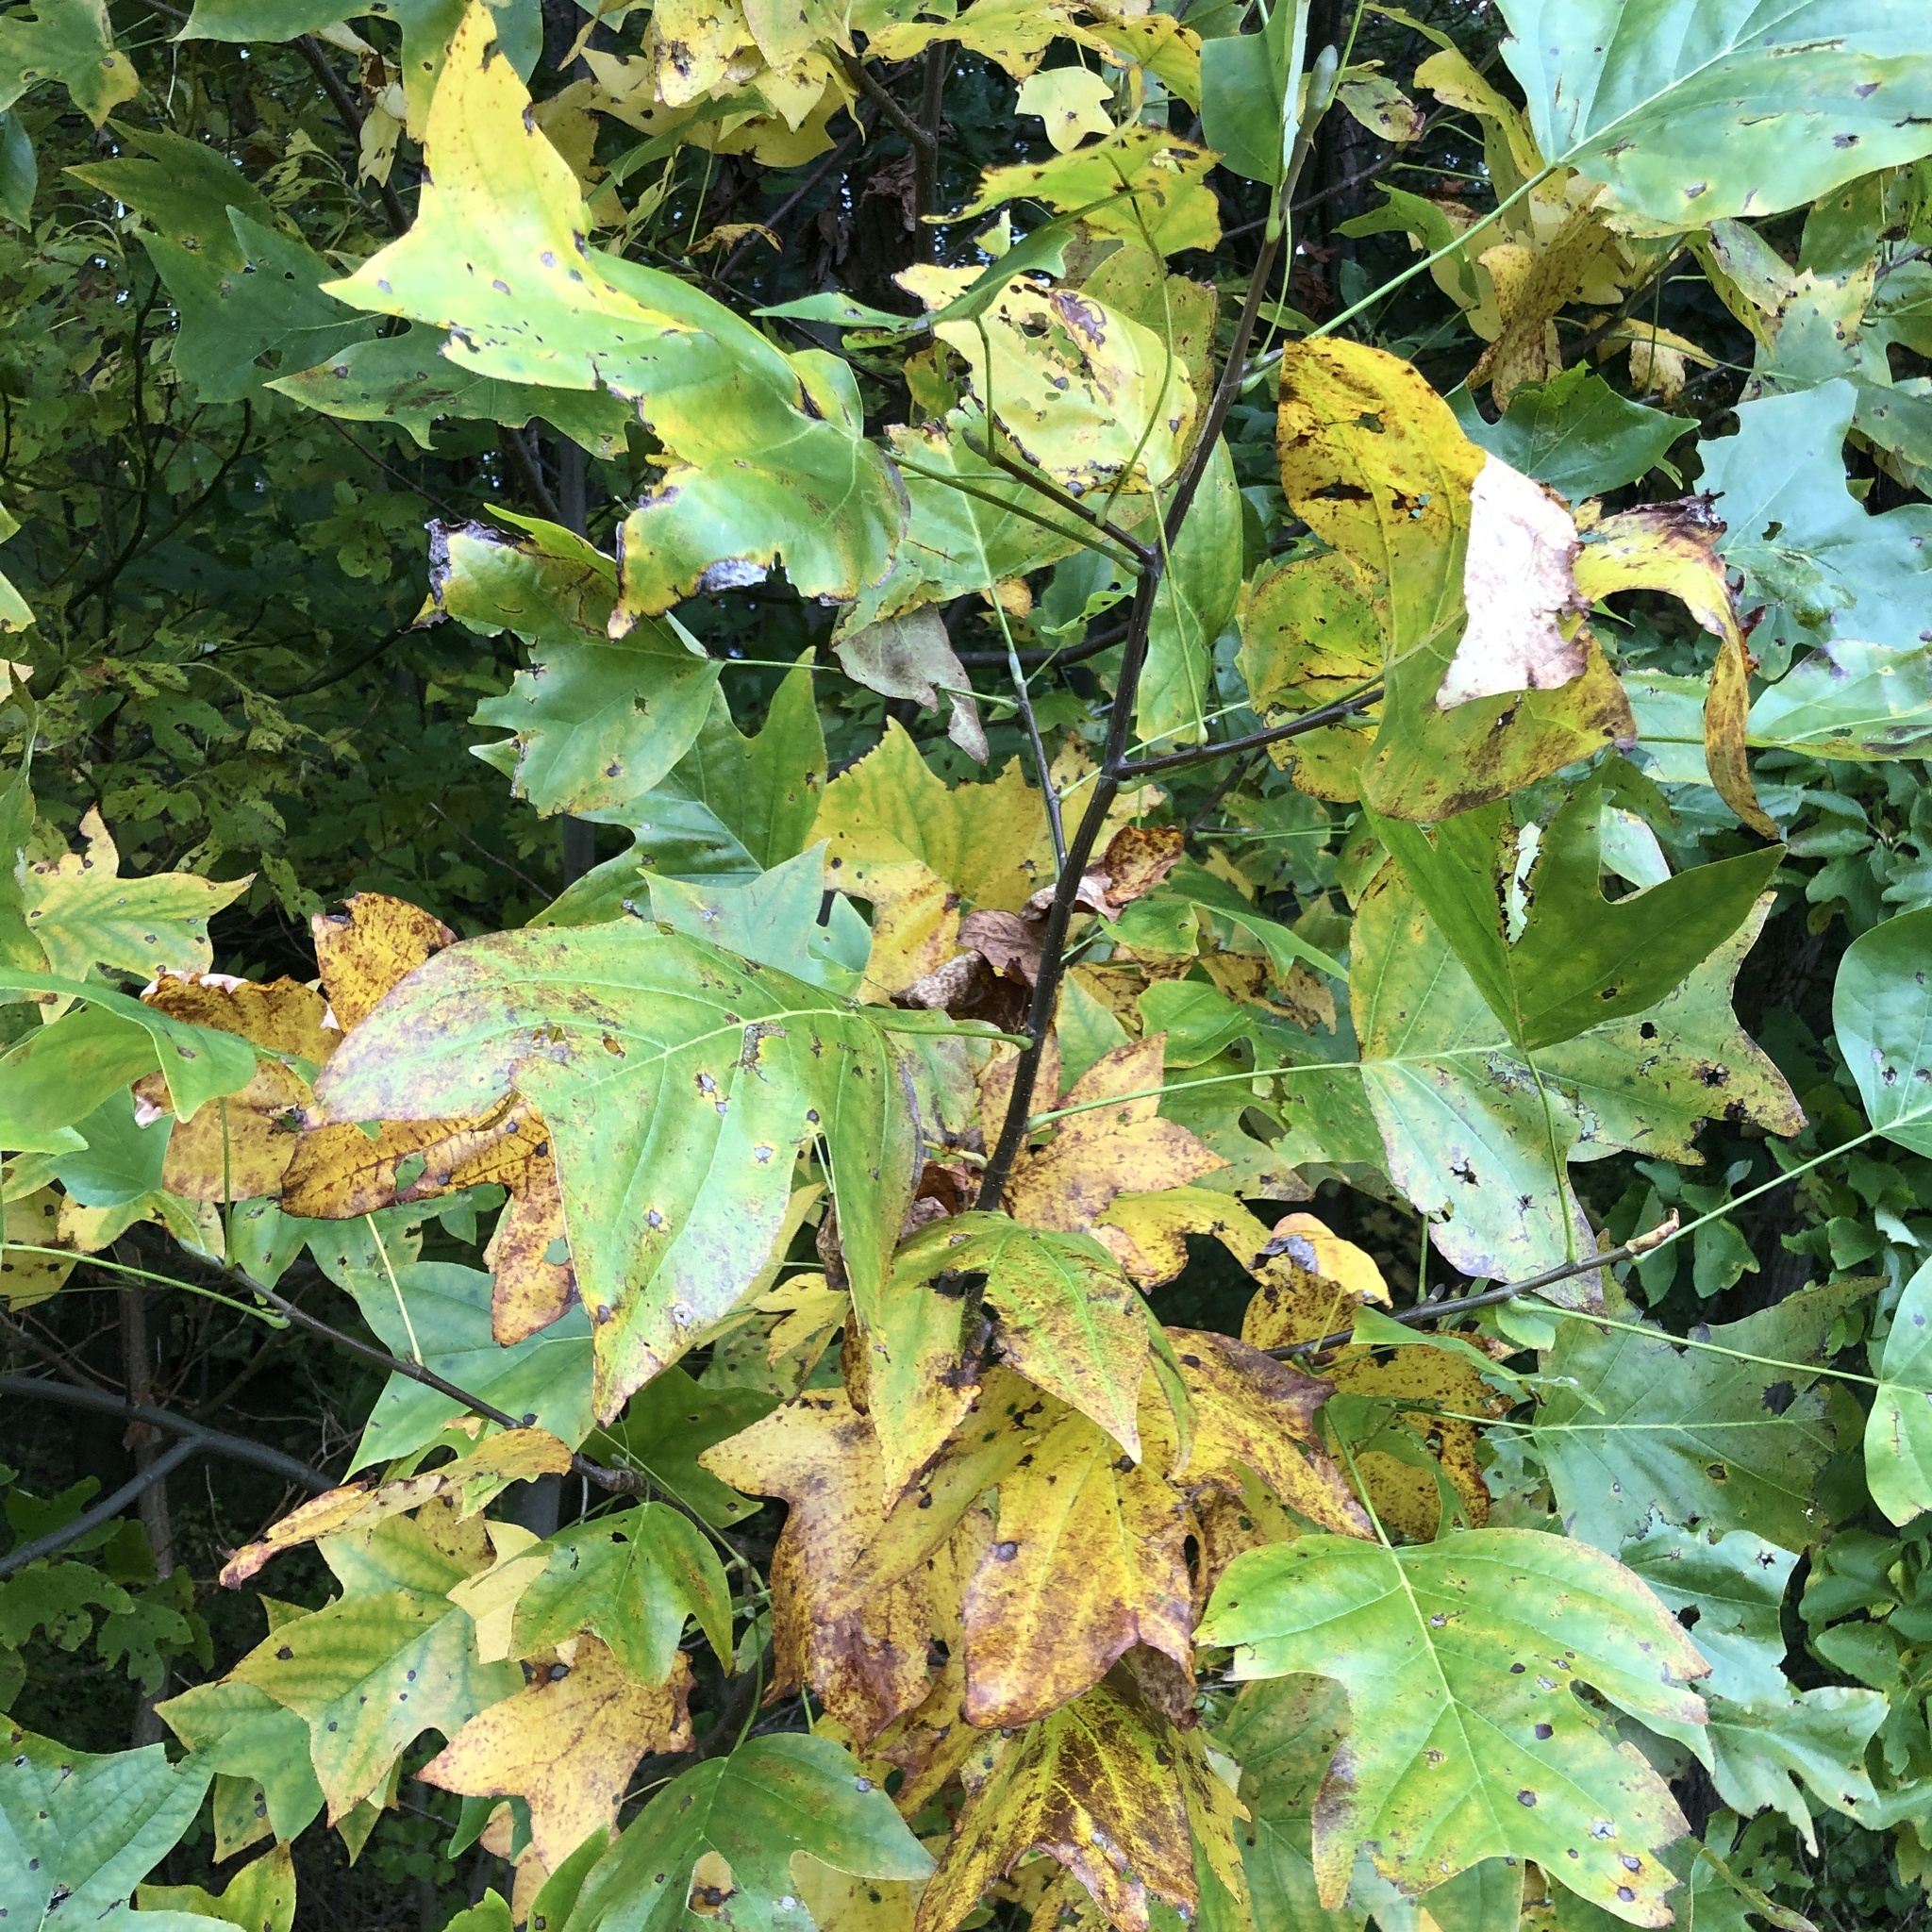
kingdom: Plantae
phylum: Tracheophyta
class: Magnoliopsida
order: Magnoliales
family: Magnoliaceae
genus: Liriodendron
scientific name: Liriodendron tulipifera
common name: Tulip tree
